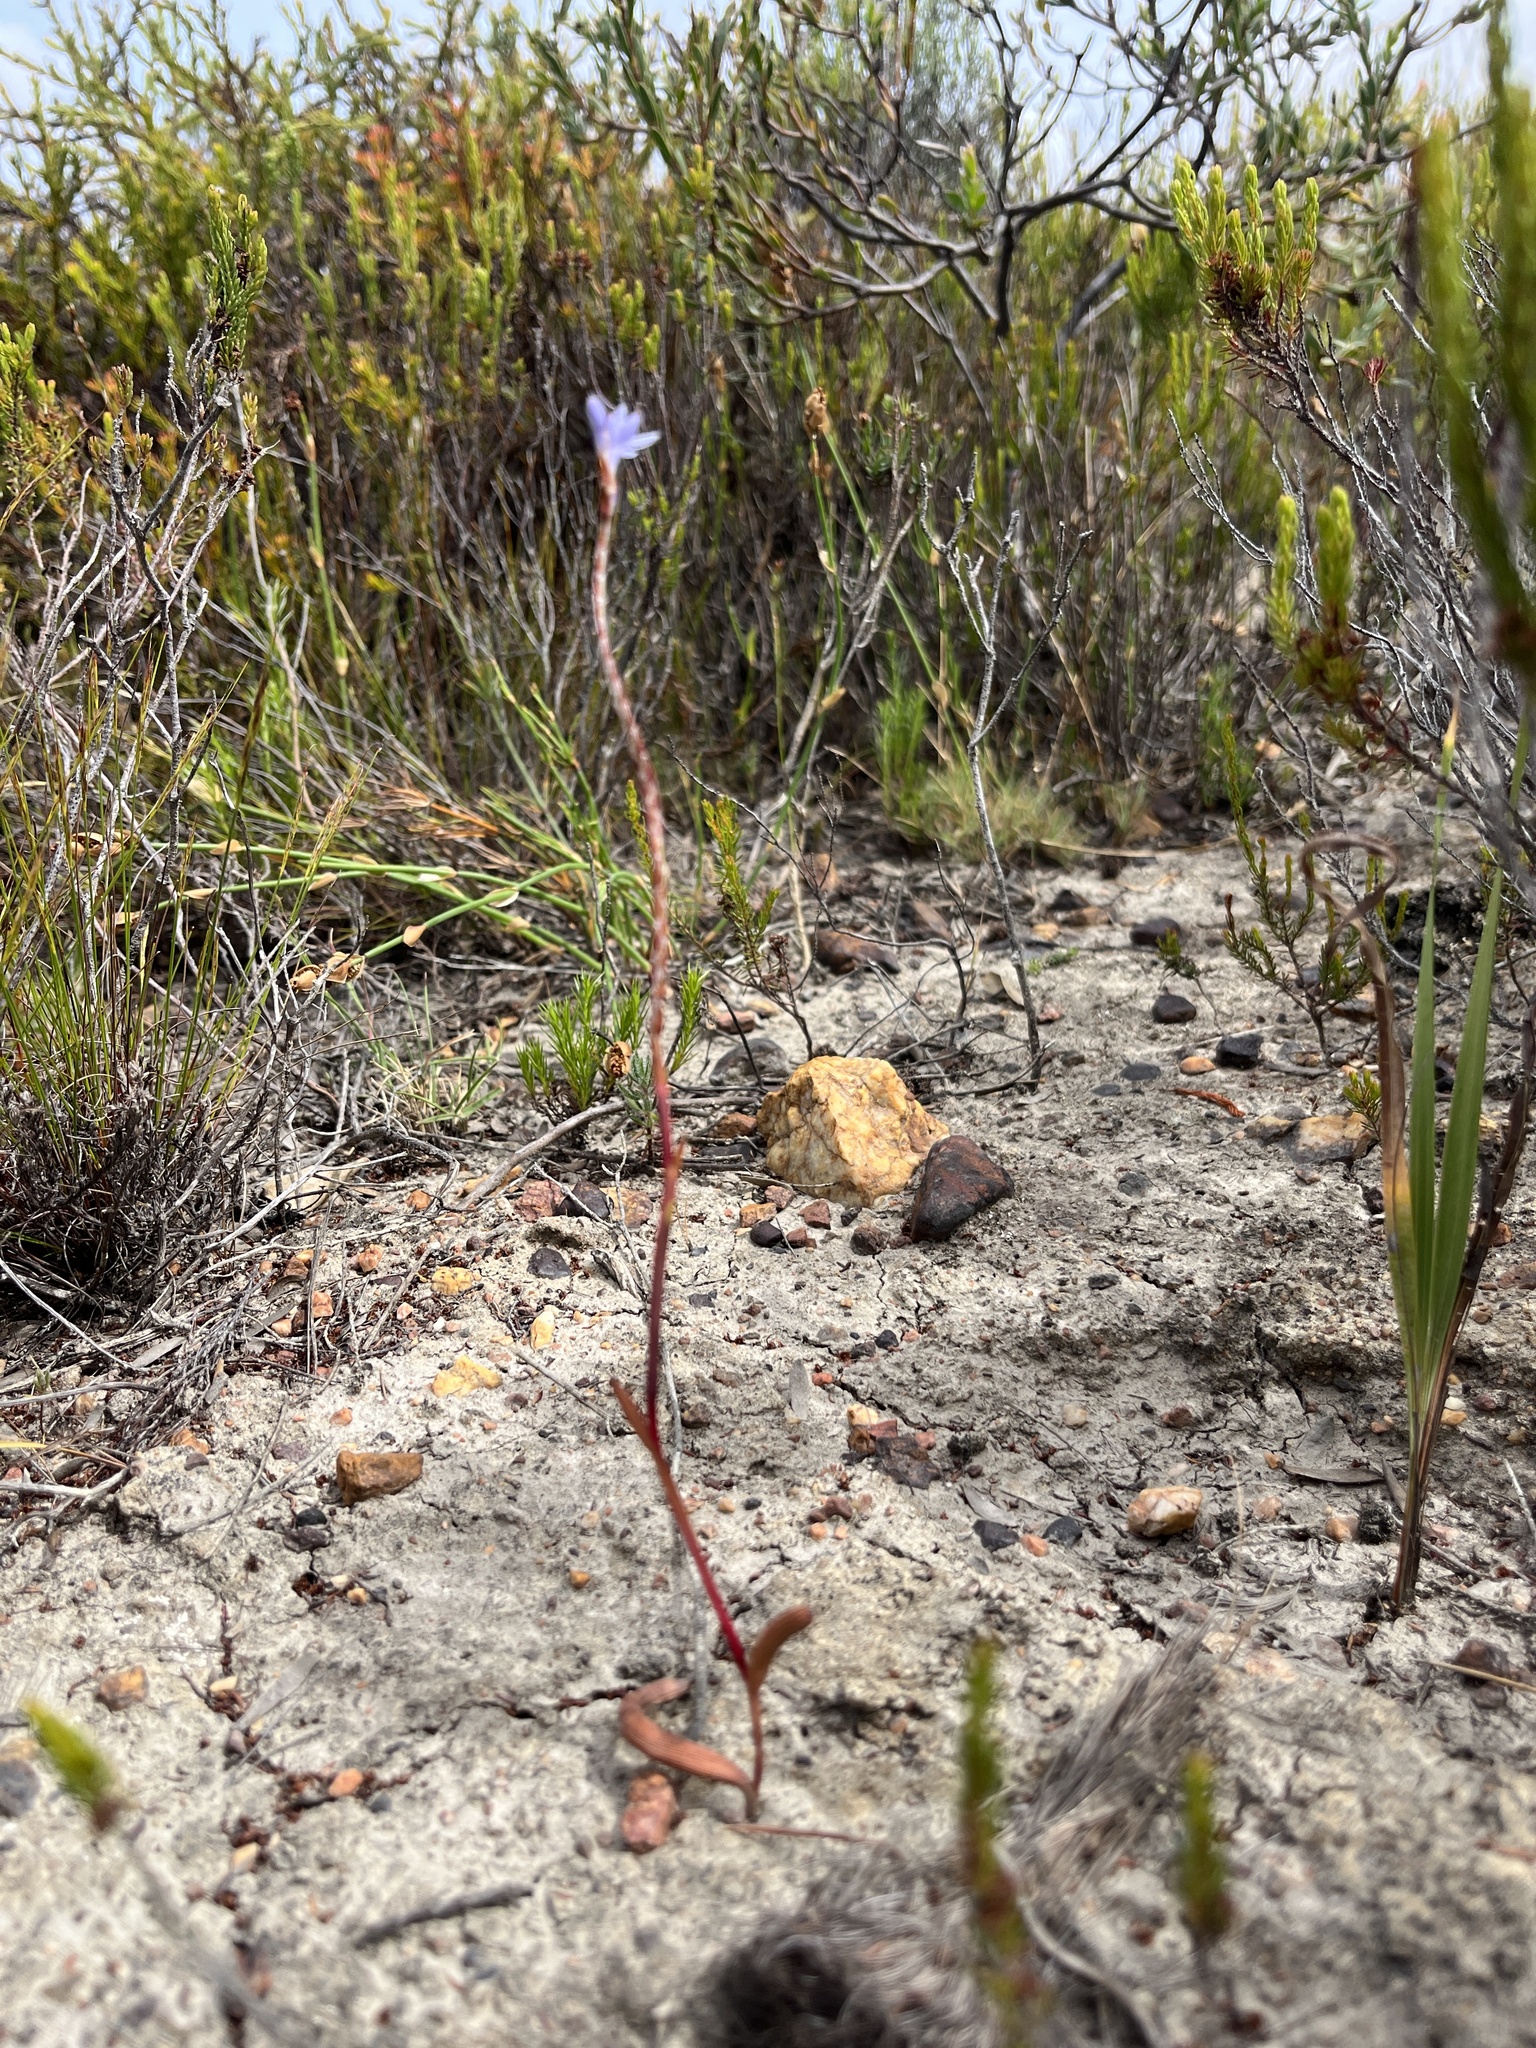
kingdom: Plantae
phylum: Tracheophyta
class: Liliopsida
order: Asparagales
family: Iridaceae
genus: Micranthus
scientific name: Micranthus tubulosus
